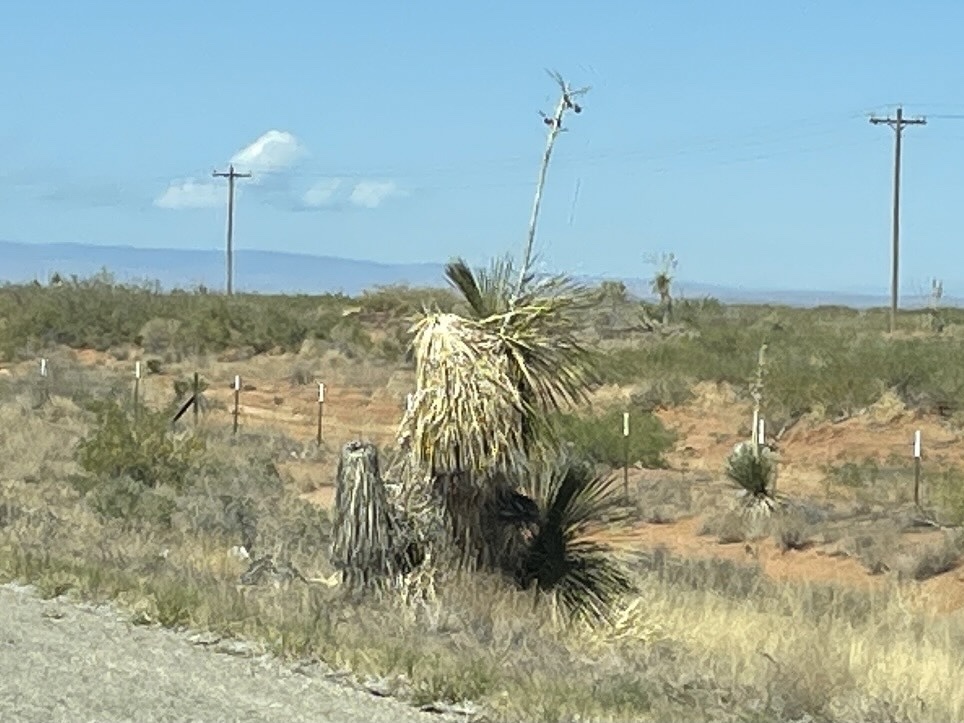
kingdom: Plantae
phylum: Tracheophyta
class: Liliopsida
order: Asparagales
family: Asparagaceae
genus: Yucca
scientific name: Yucca elata
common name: Palmella
